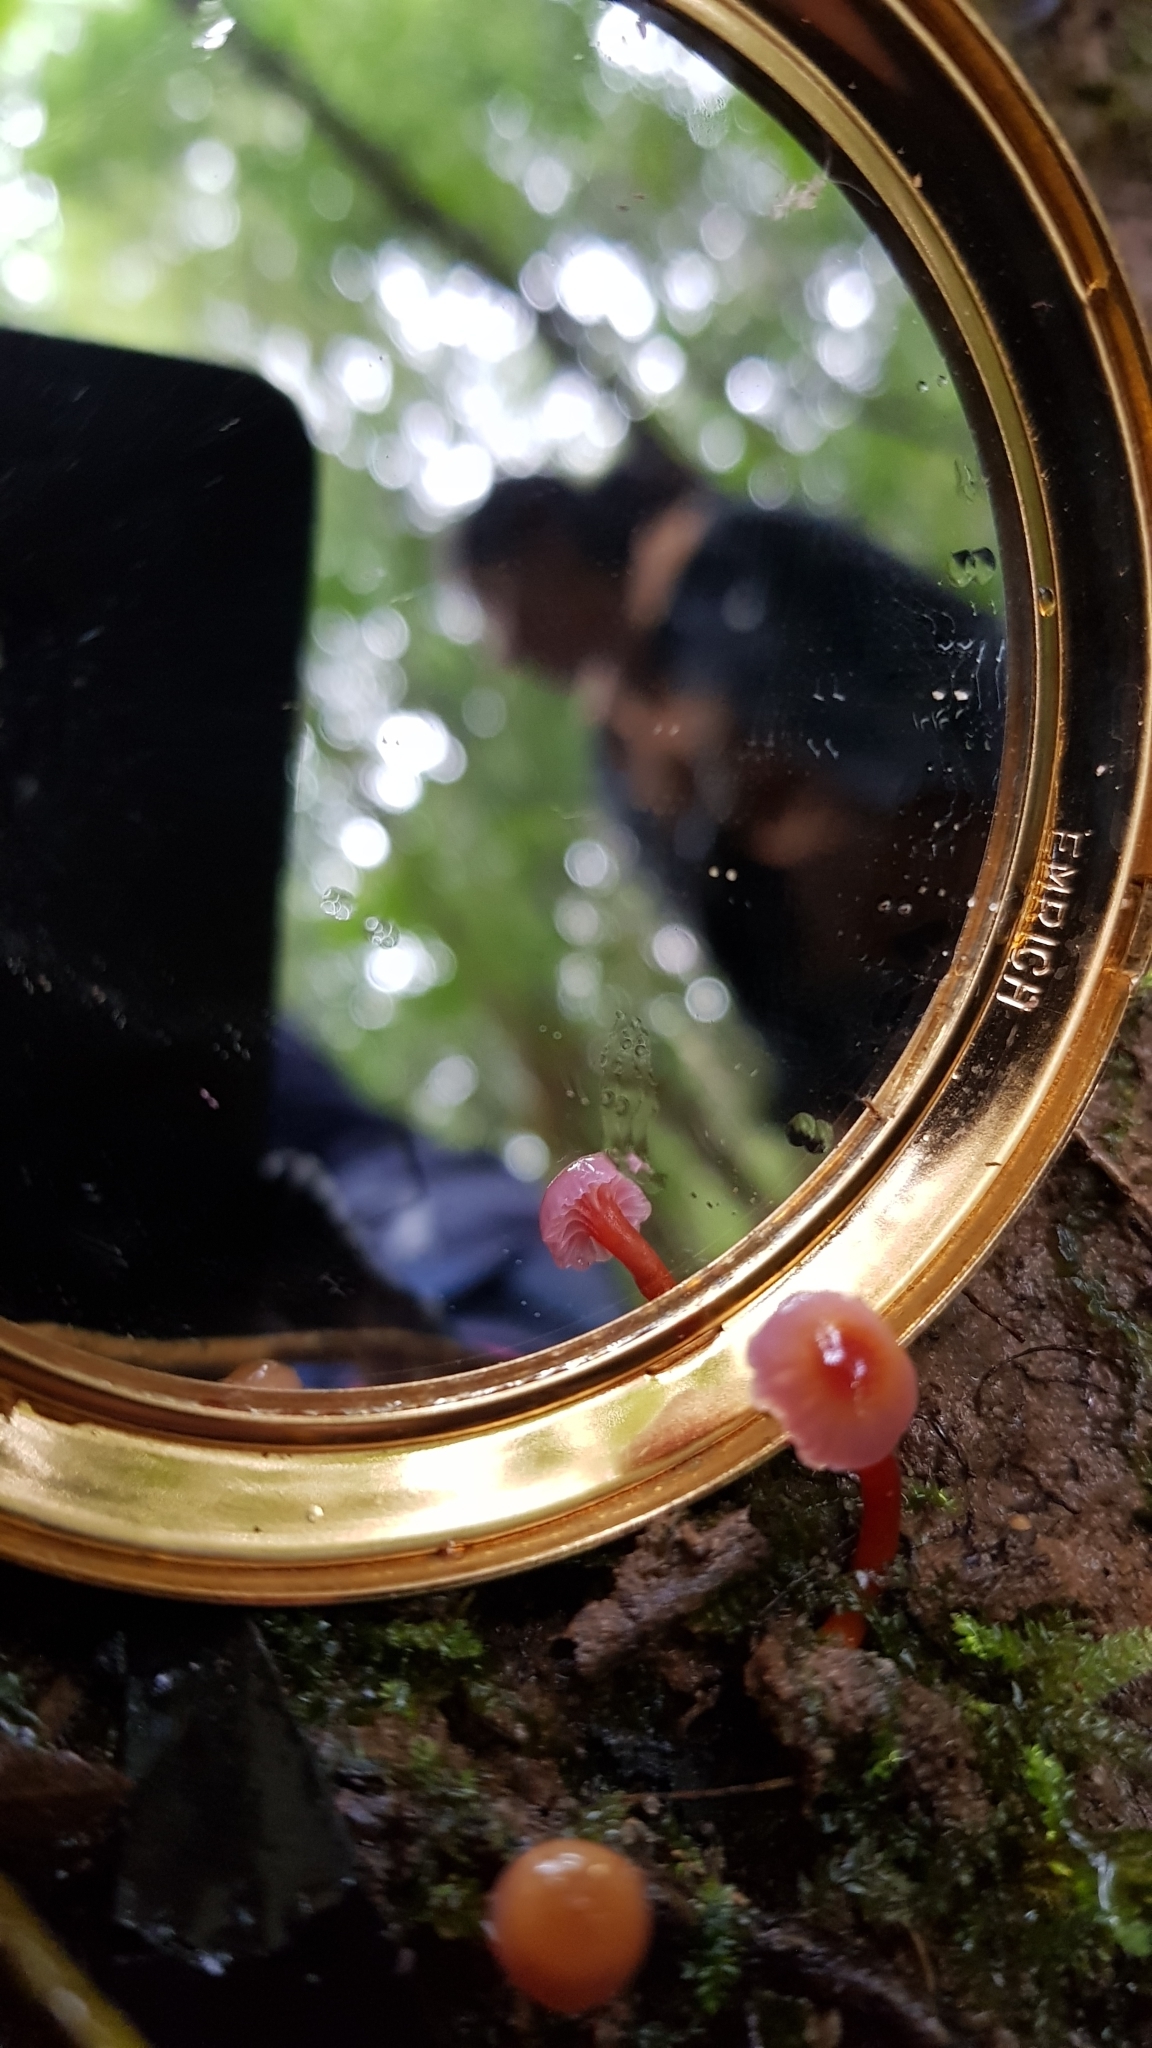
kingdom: Fungi
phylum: Basidiomycota
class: Agaricomycetes
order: Agaricales
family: Hygrophoraceae
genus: Hygrocybe
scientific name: Hygrocybe anomala
